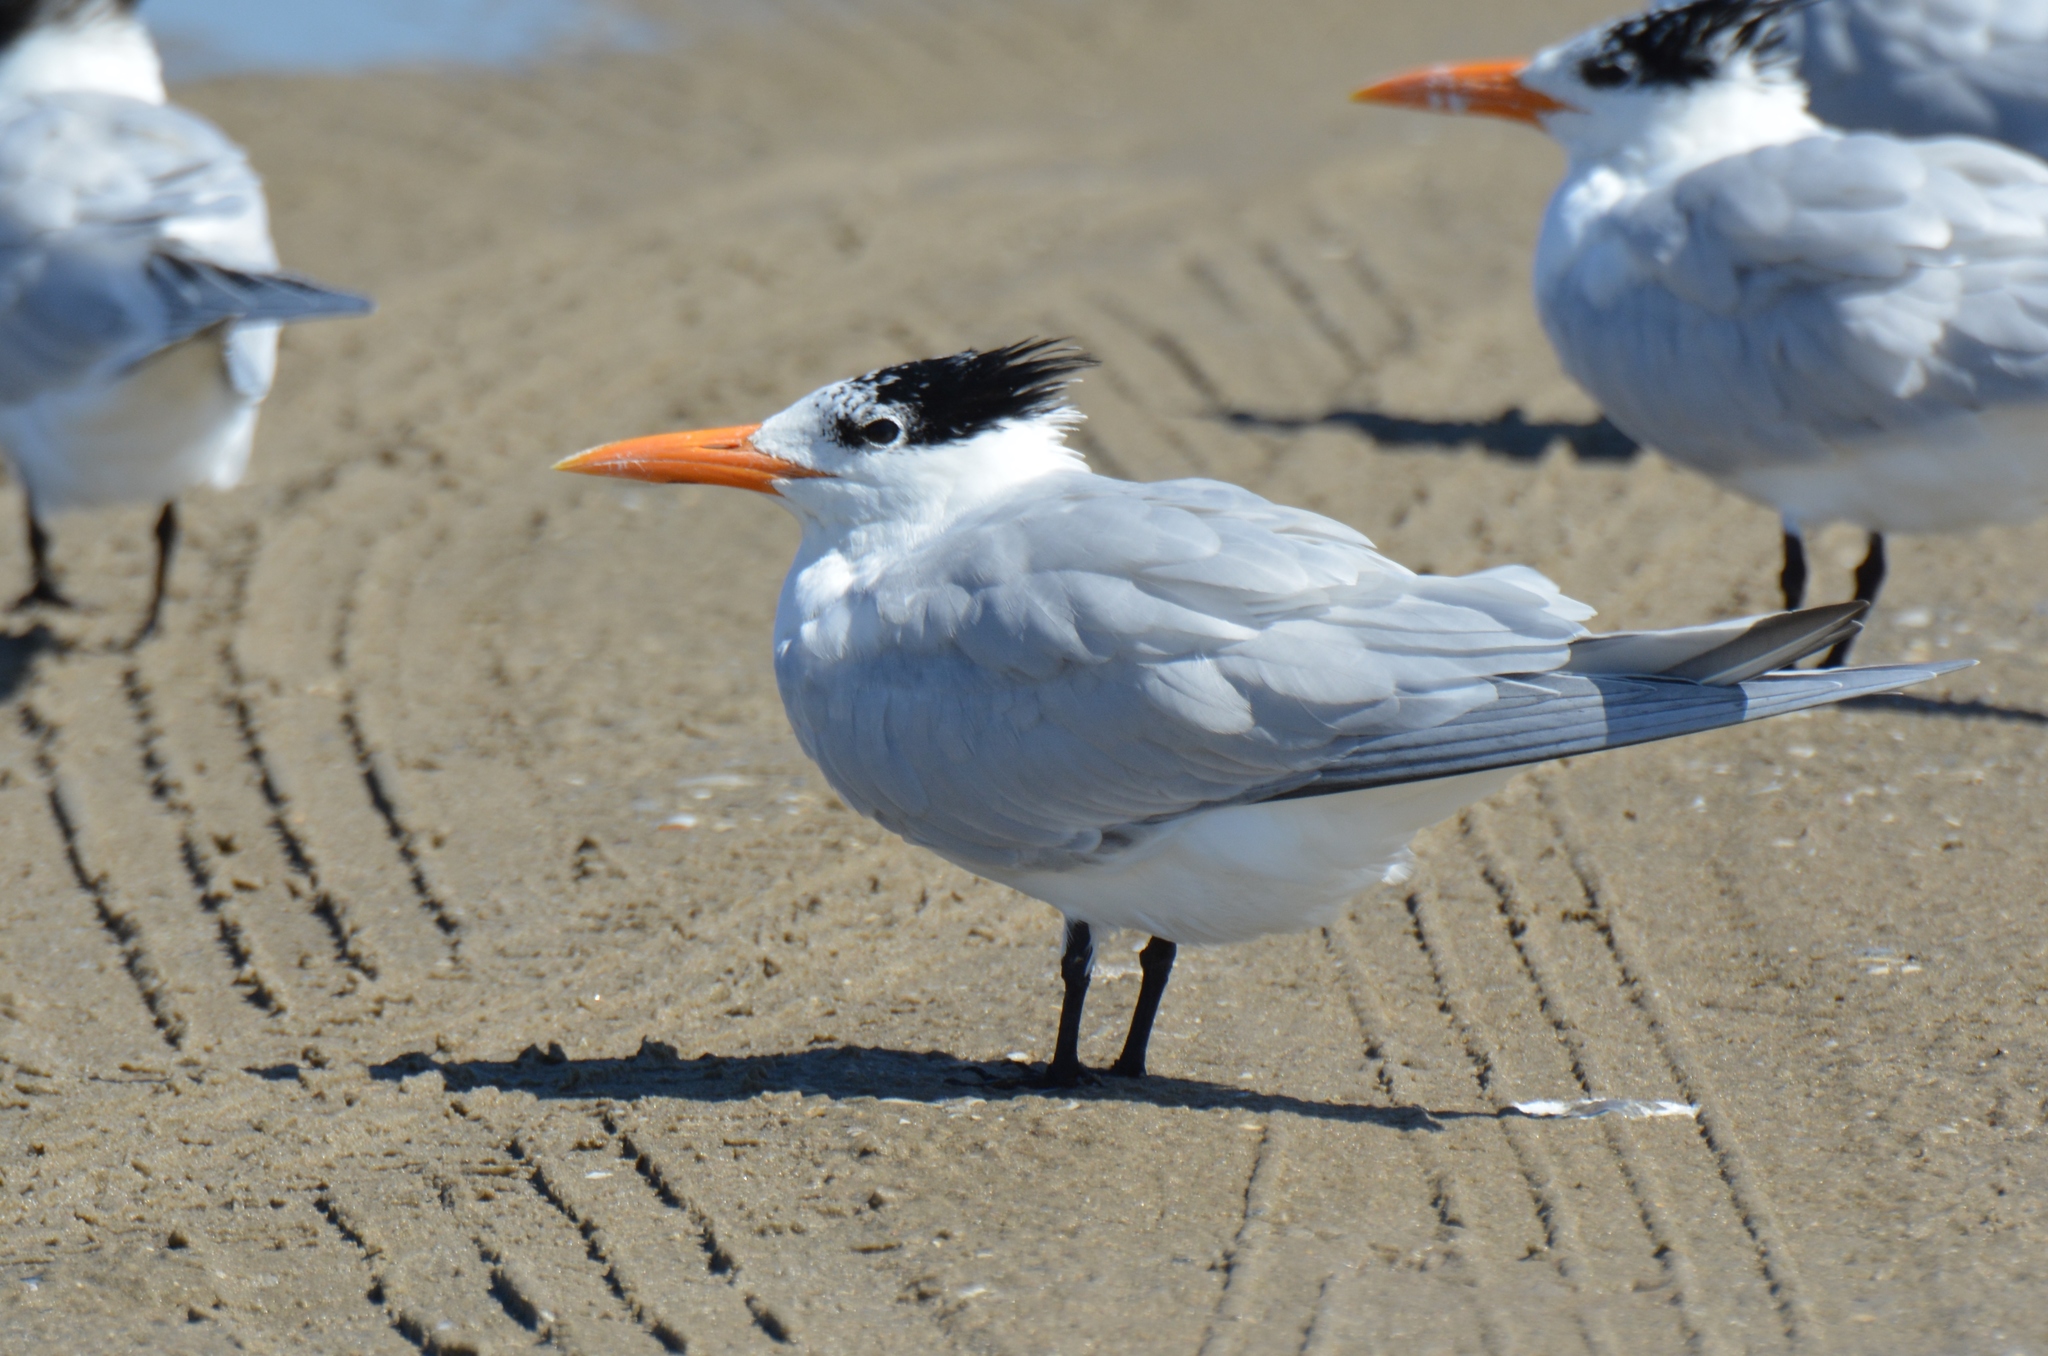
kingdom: Animalia
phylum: Chordata
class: Aves
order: Charadriiformes
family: Laridae
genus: Thalasseus
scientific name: Thalasseus maximus
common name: Royal tern
